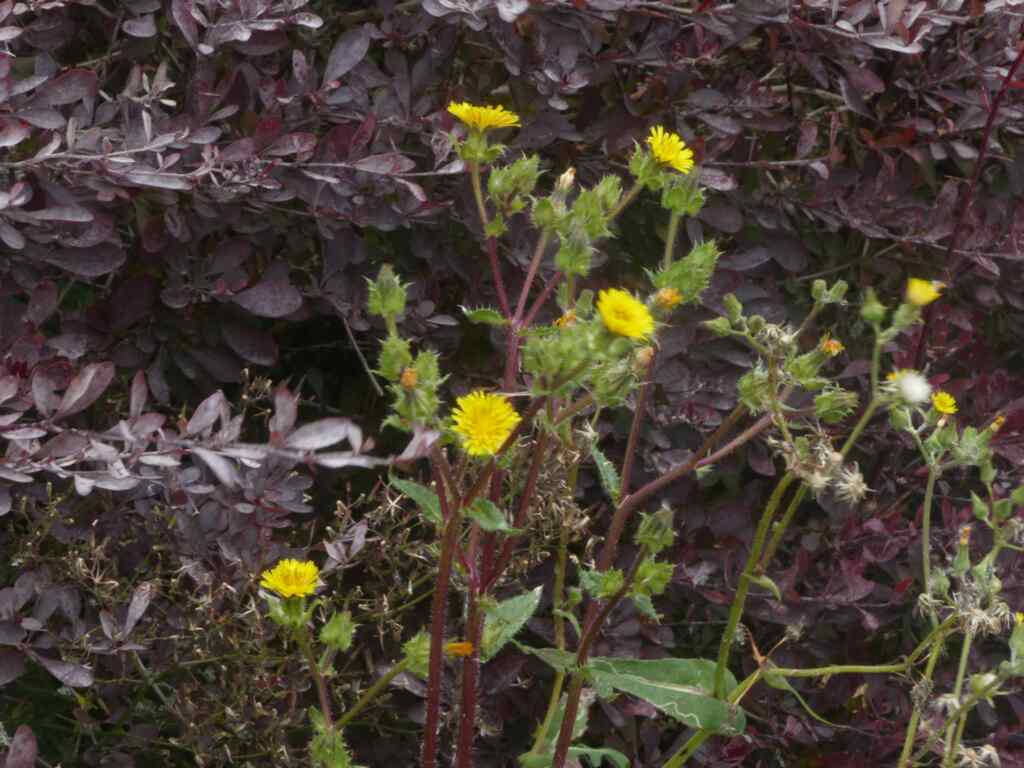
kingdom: Plantae
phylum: Tracheophyta
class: Magnoliopsida
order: Asterales
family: Asteraceae
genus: Helminthotheca
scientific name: Helminthotheca echioides
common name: Ox-tongue
